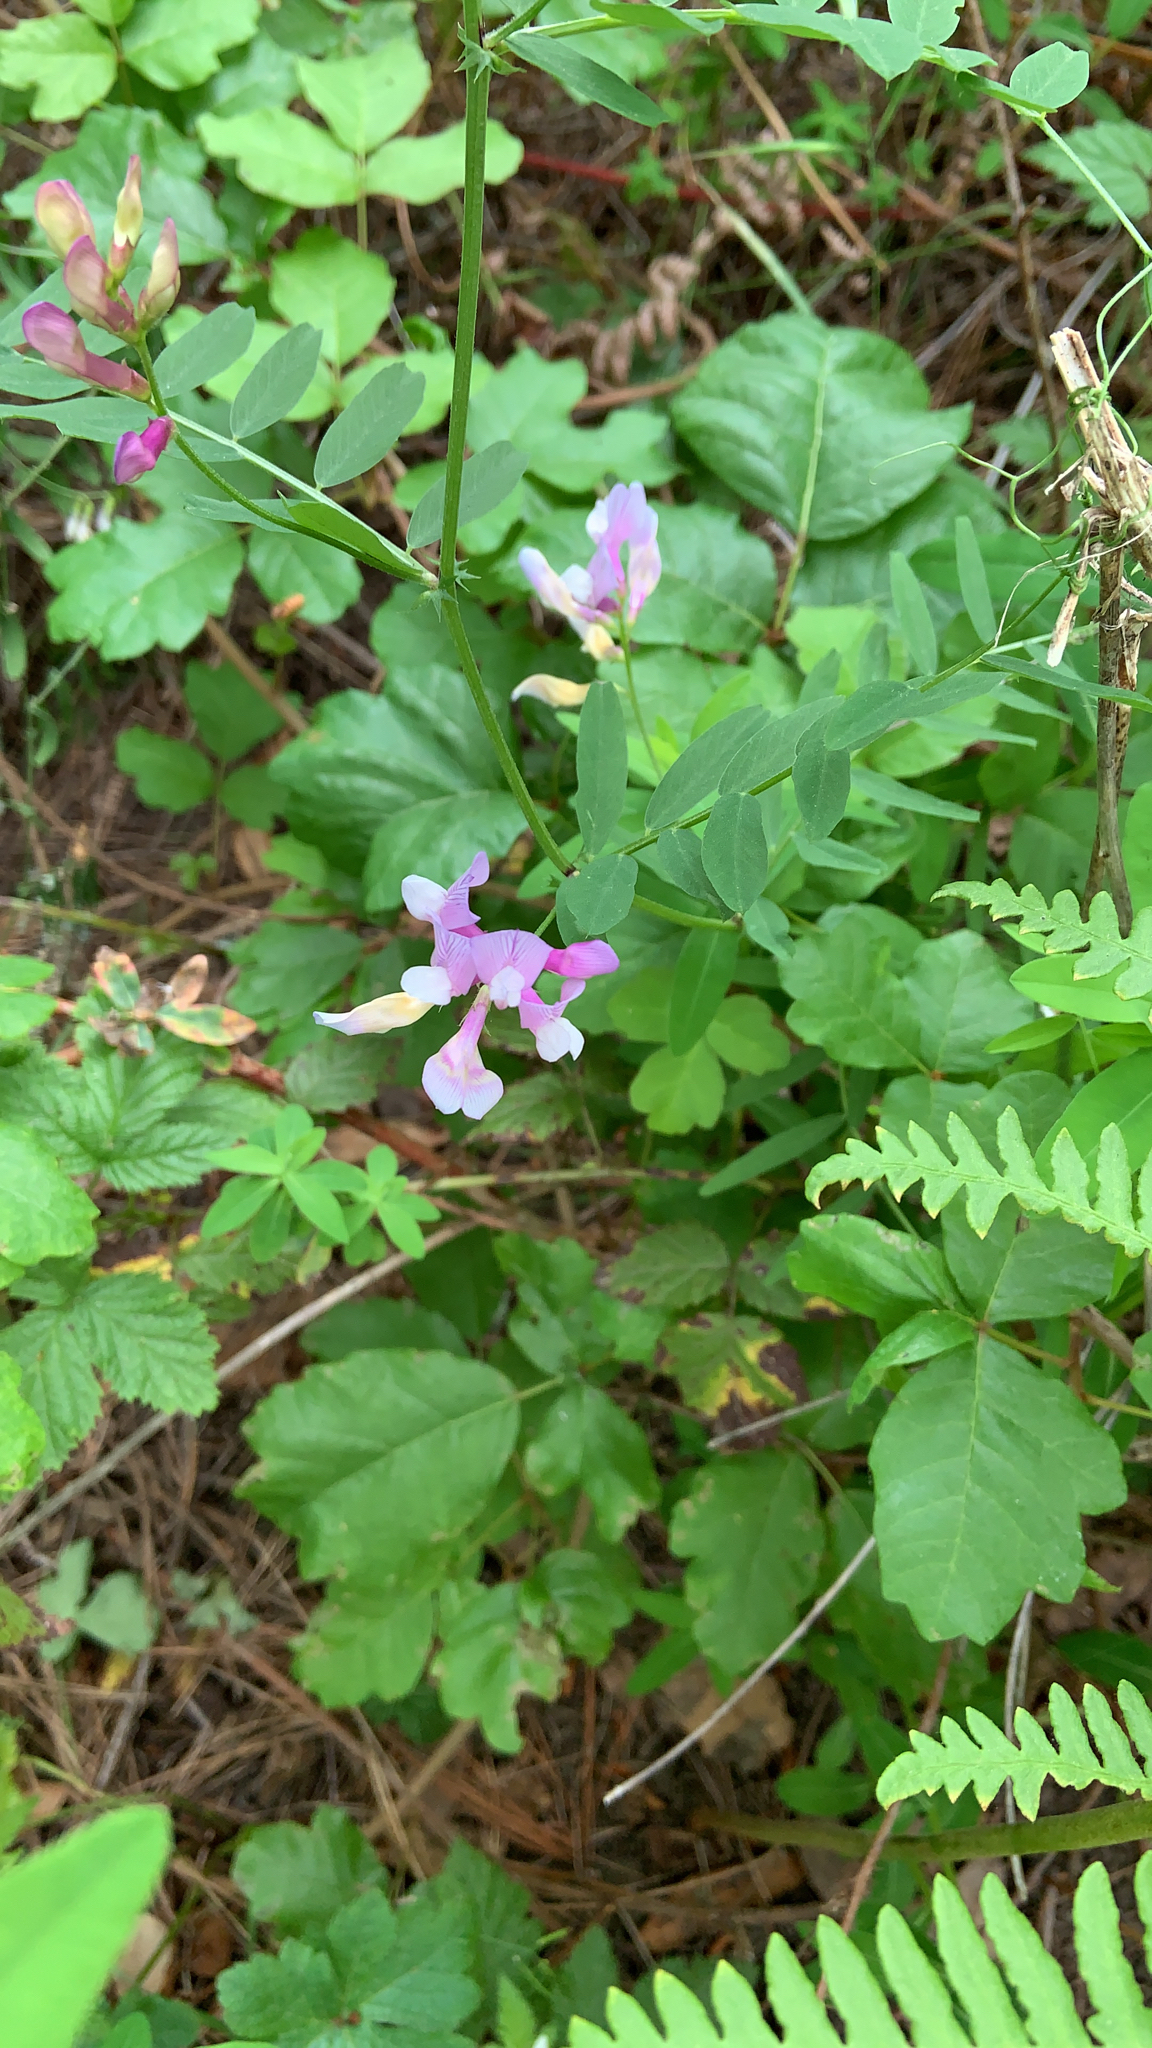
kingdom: Plantae
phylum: Tracheophyta
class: Magnoliopsida
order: Fabales
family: Fabaceae
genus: Vicia
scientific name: Vicia americana
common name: American vetch
